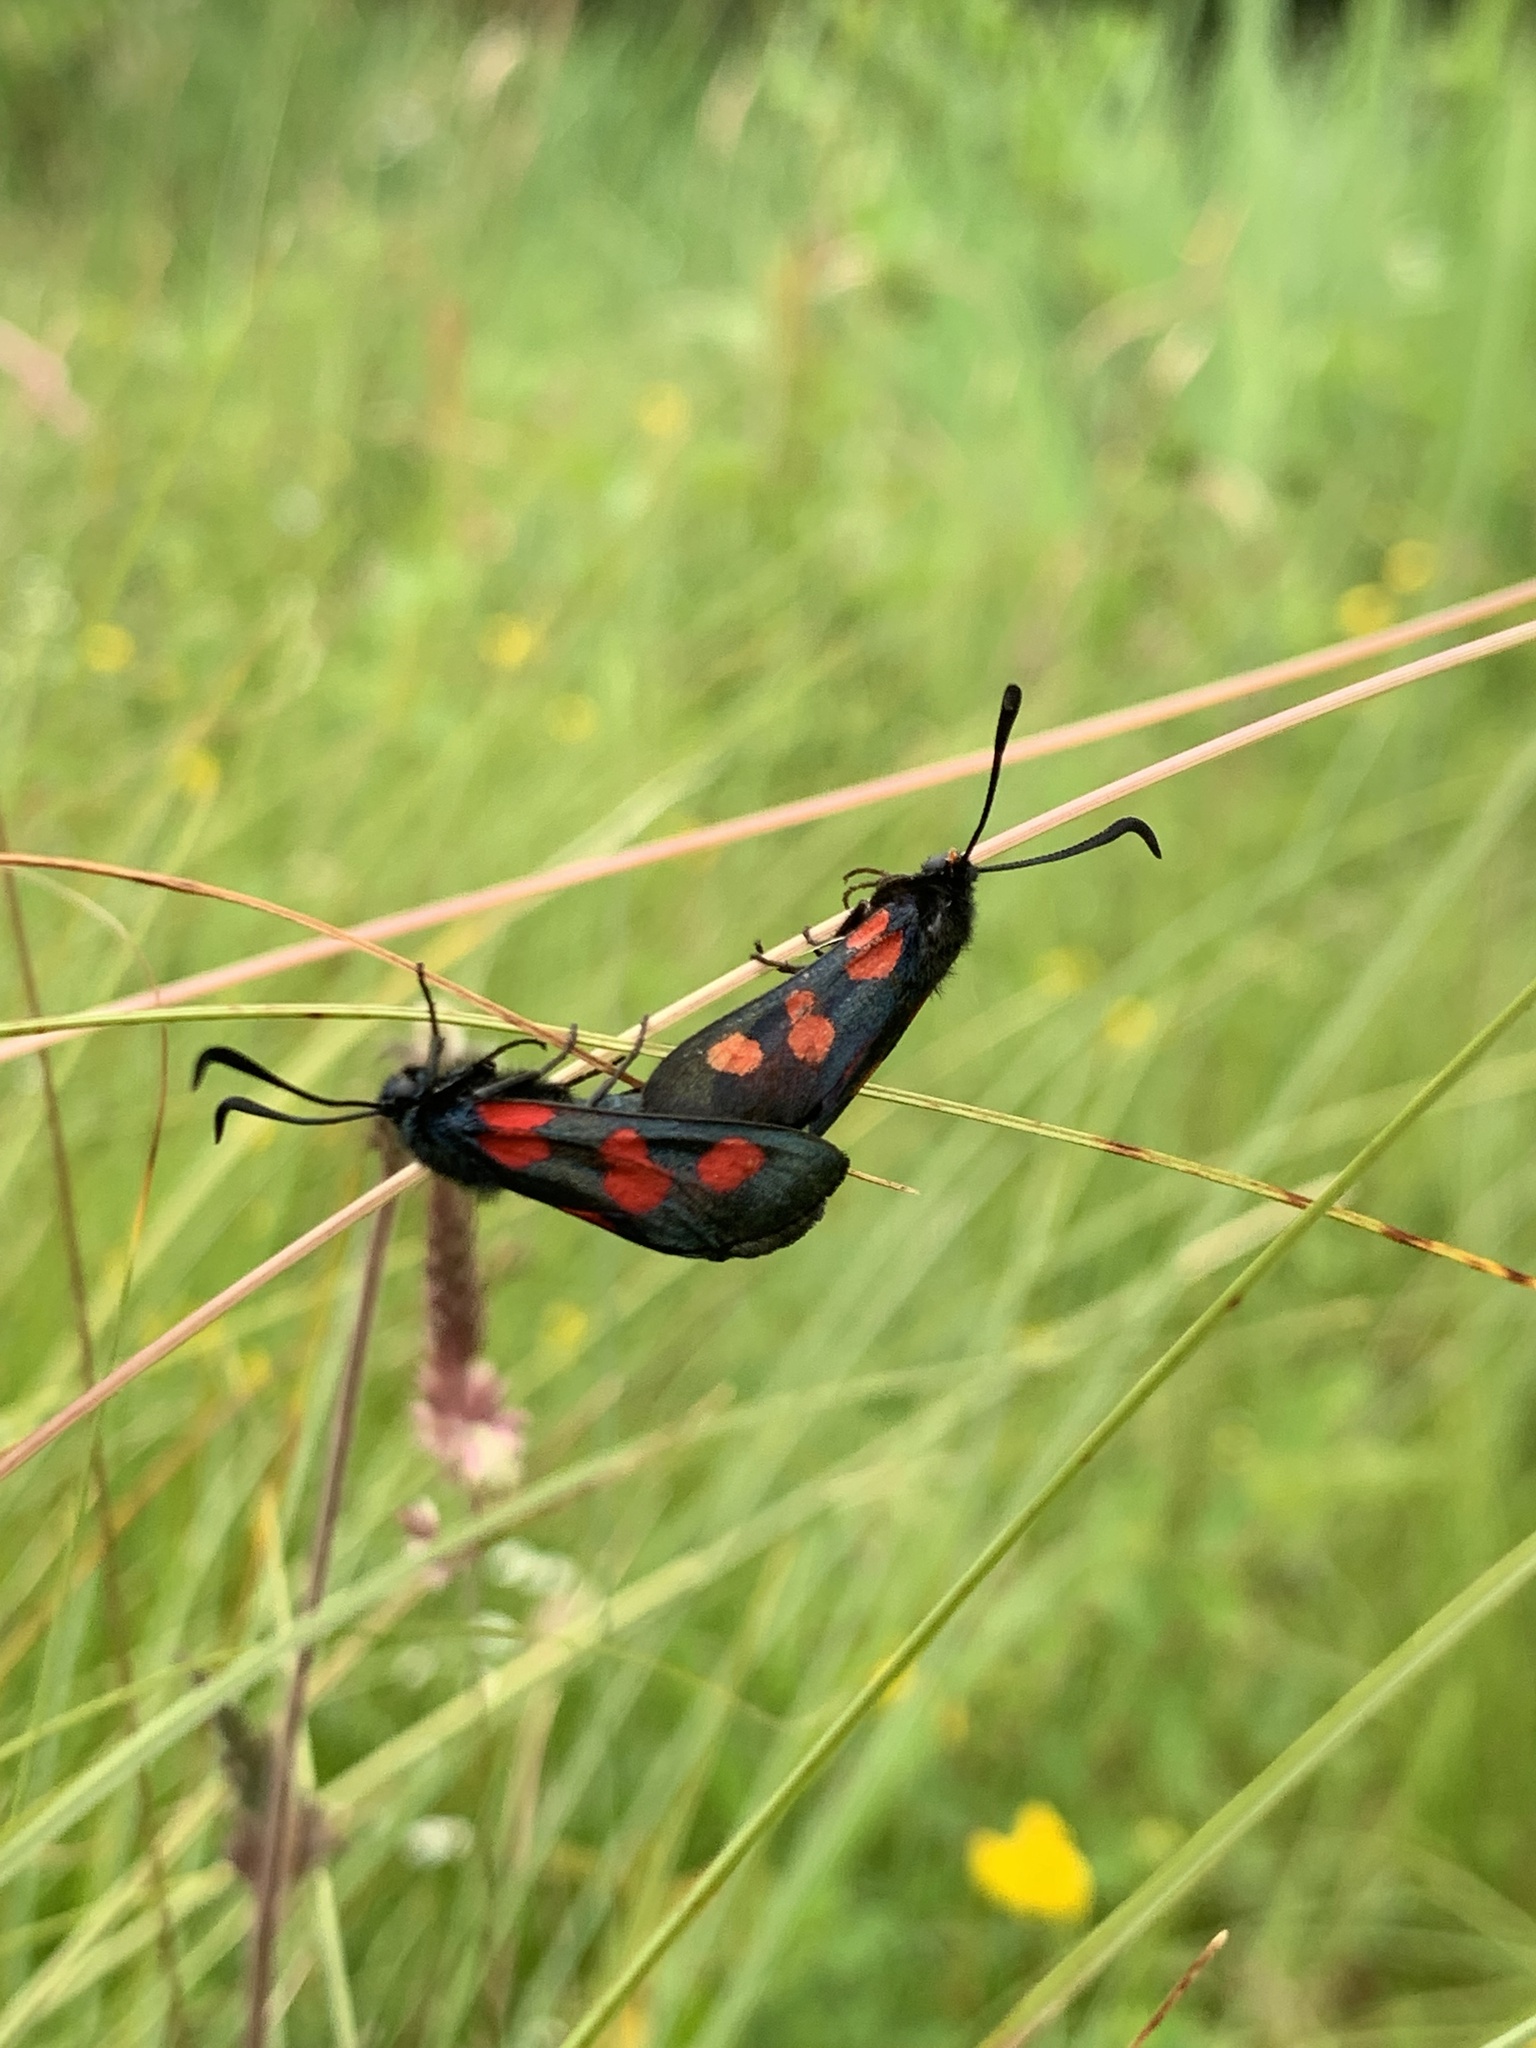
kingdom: Animalia
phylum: Arthropoda
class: Insecta
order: Lepidoptera
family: Zygaenidae
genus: Zygaena
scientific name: Zygaena trifolii
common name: Five-spot burnet
